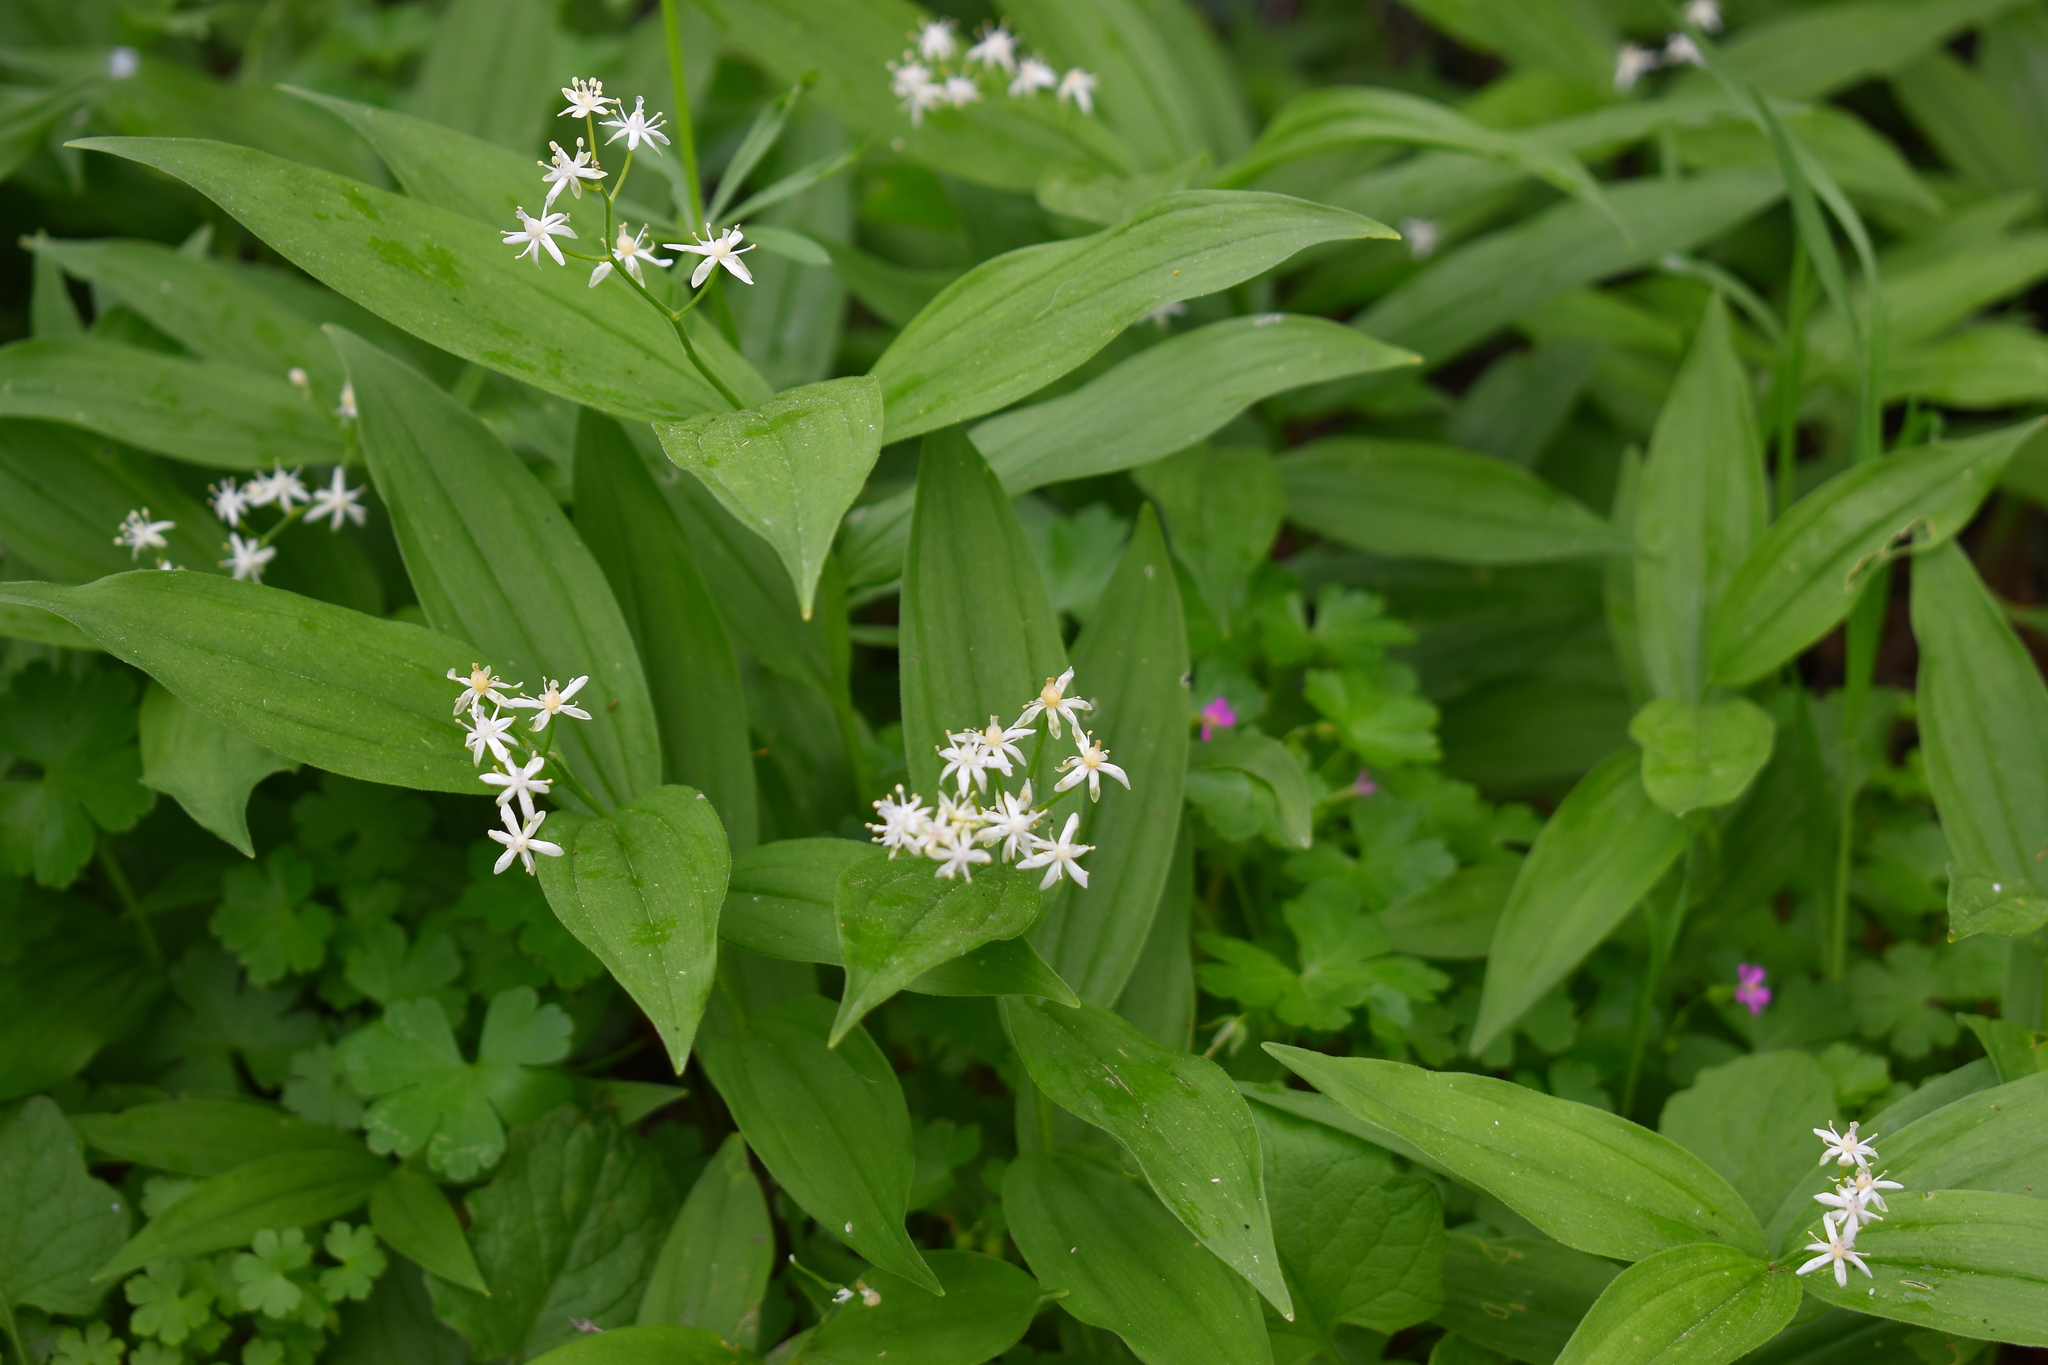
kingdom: Plantae
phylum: Tracheophyta
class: Liliopsida
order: Asparagales
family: Asparagaceae
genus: Maianthemum
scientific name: Maianthemum stellatum
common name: Little false solomon's seal
